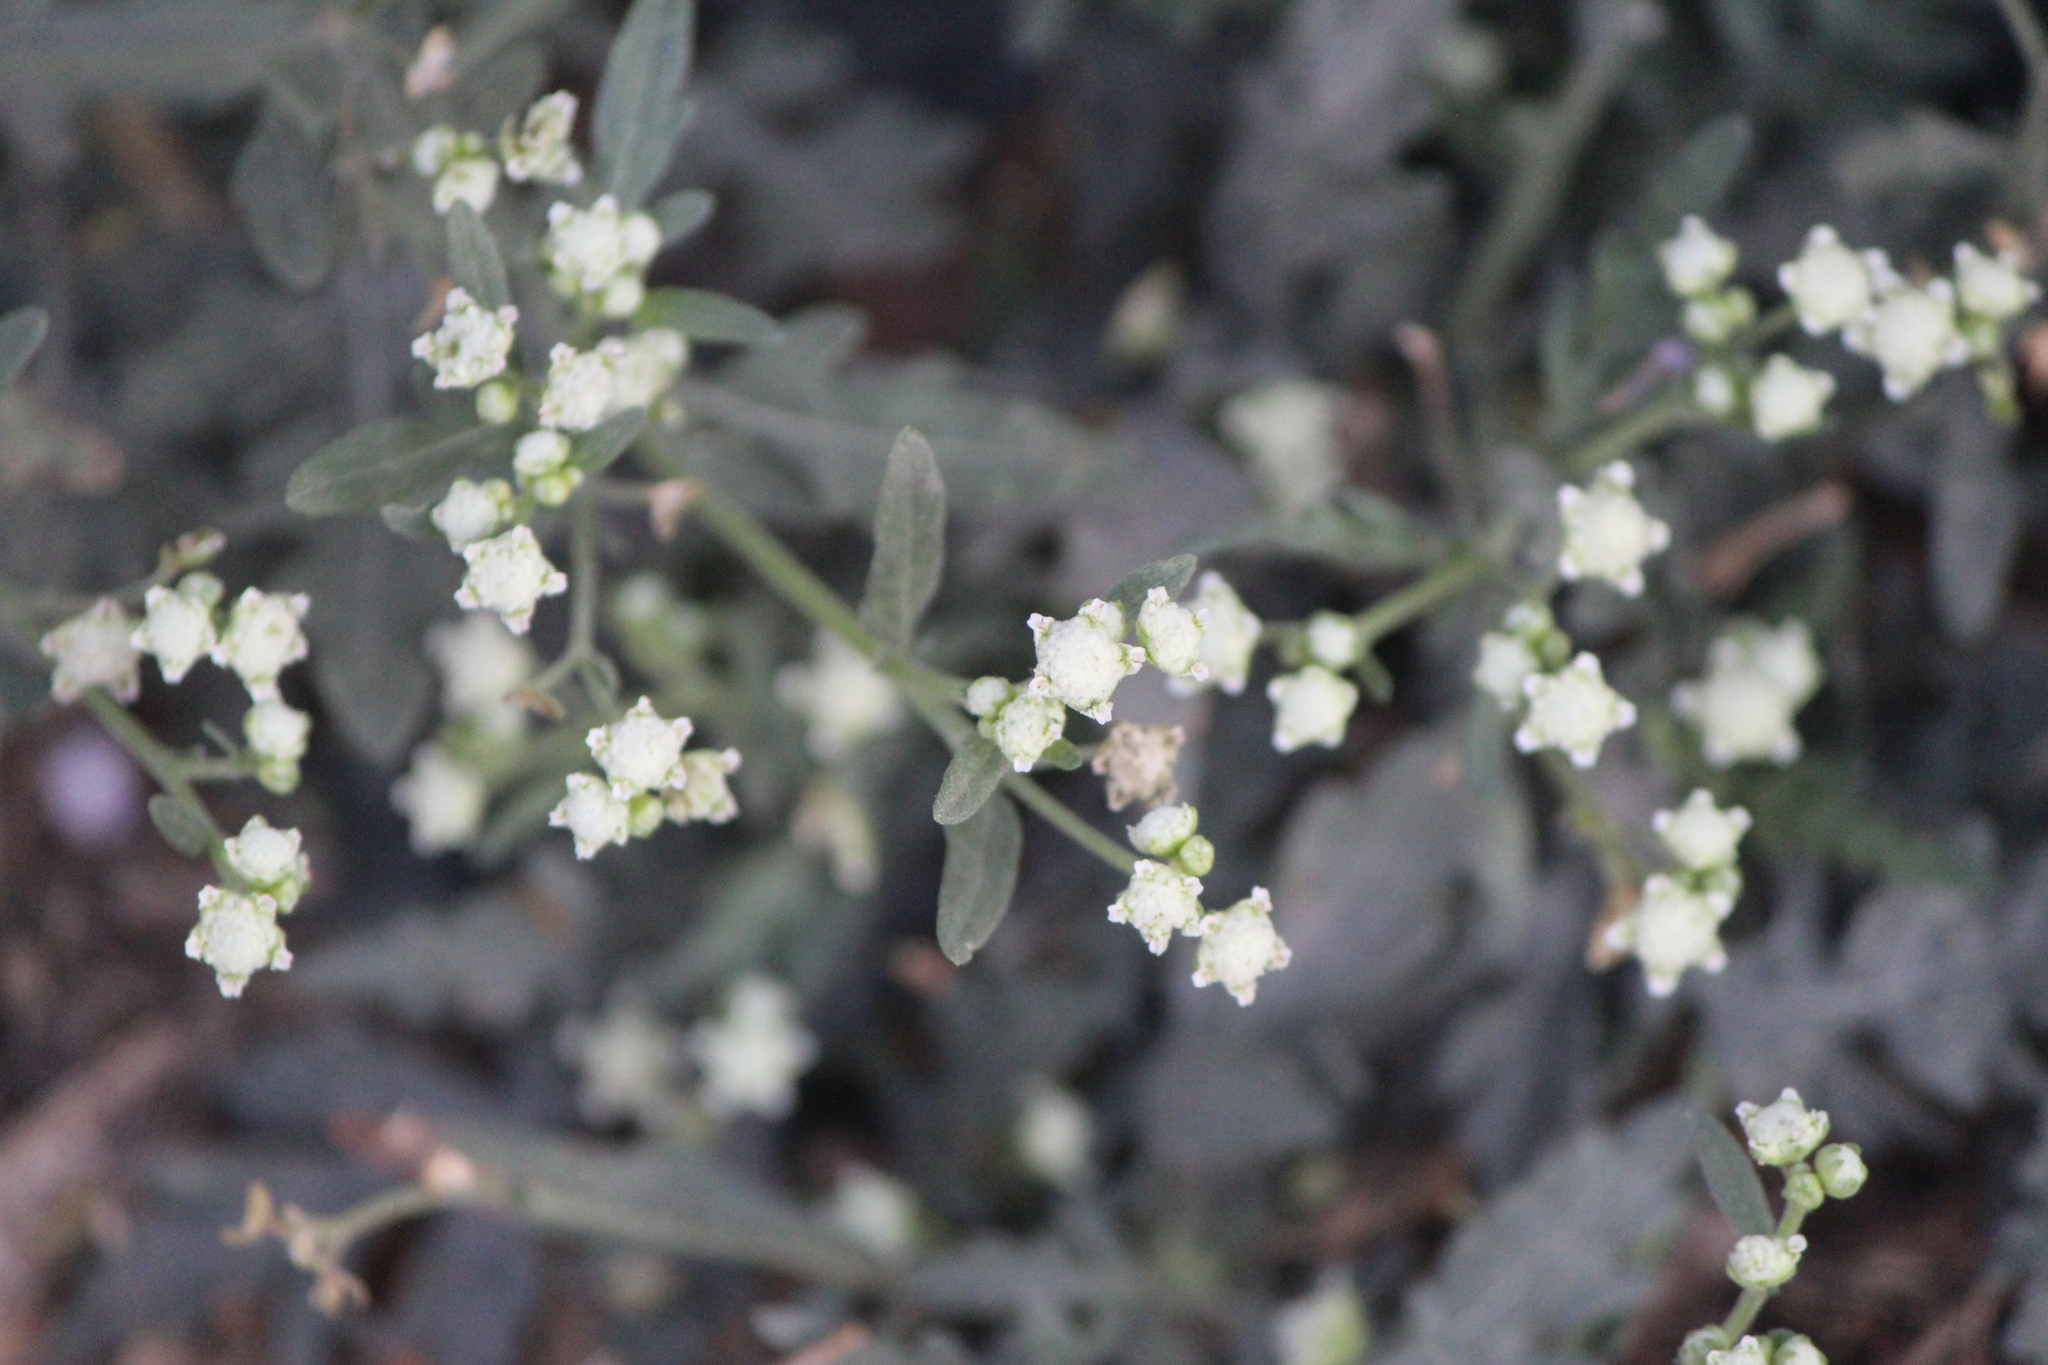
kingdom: Plantae
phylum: Tracheophyta
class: Magnoliopsida
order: Asterales
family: Asteraceae
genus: Parthenium
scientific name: Parthenium hysterophorus
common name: Santa maria feverfew
